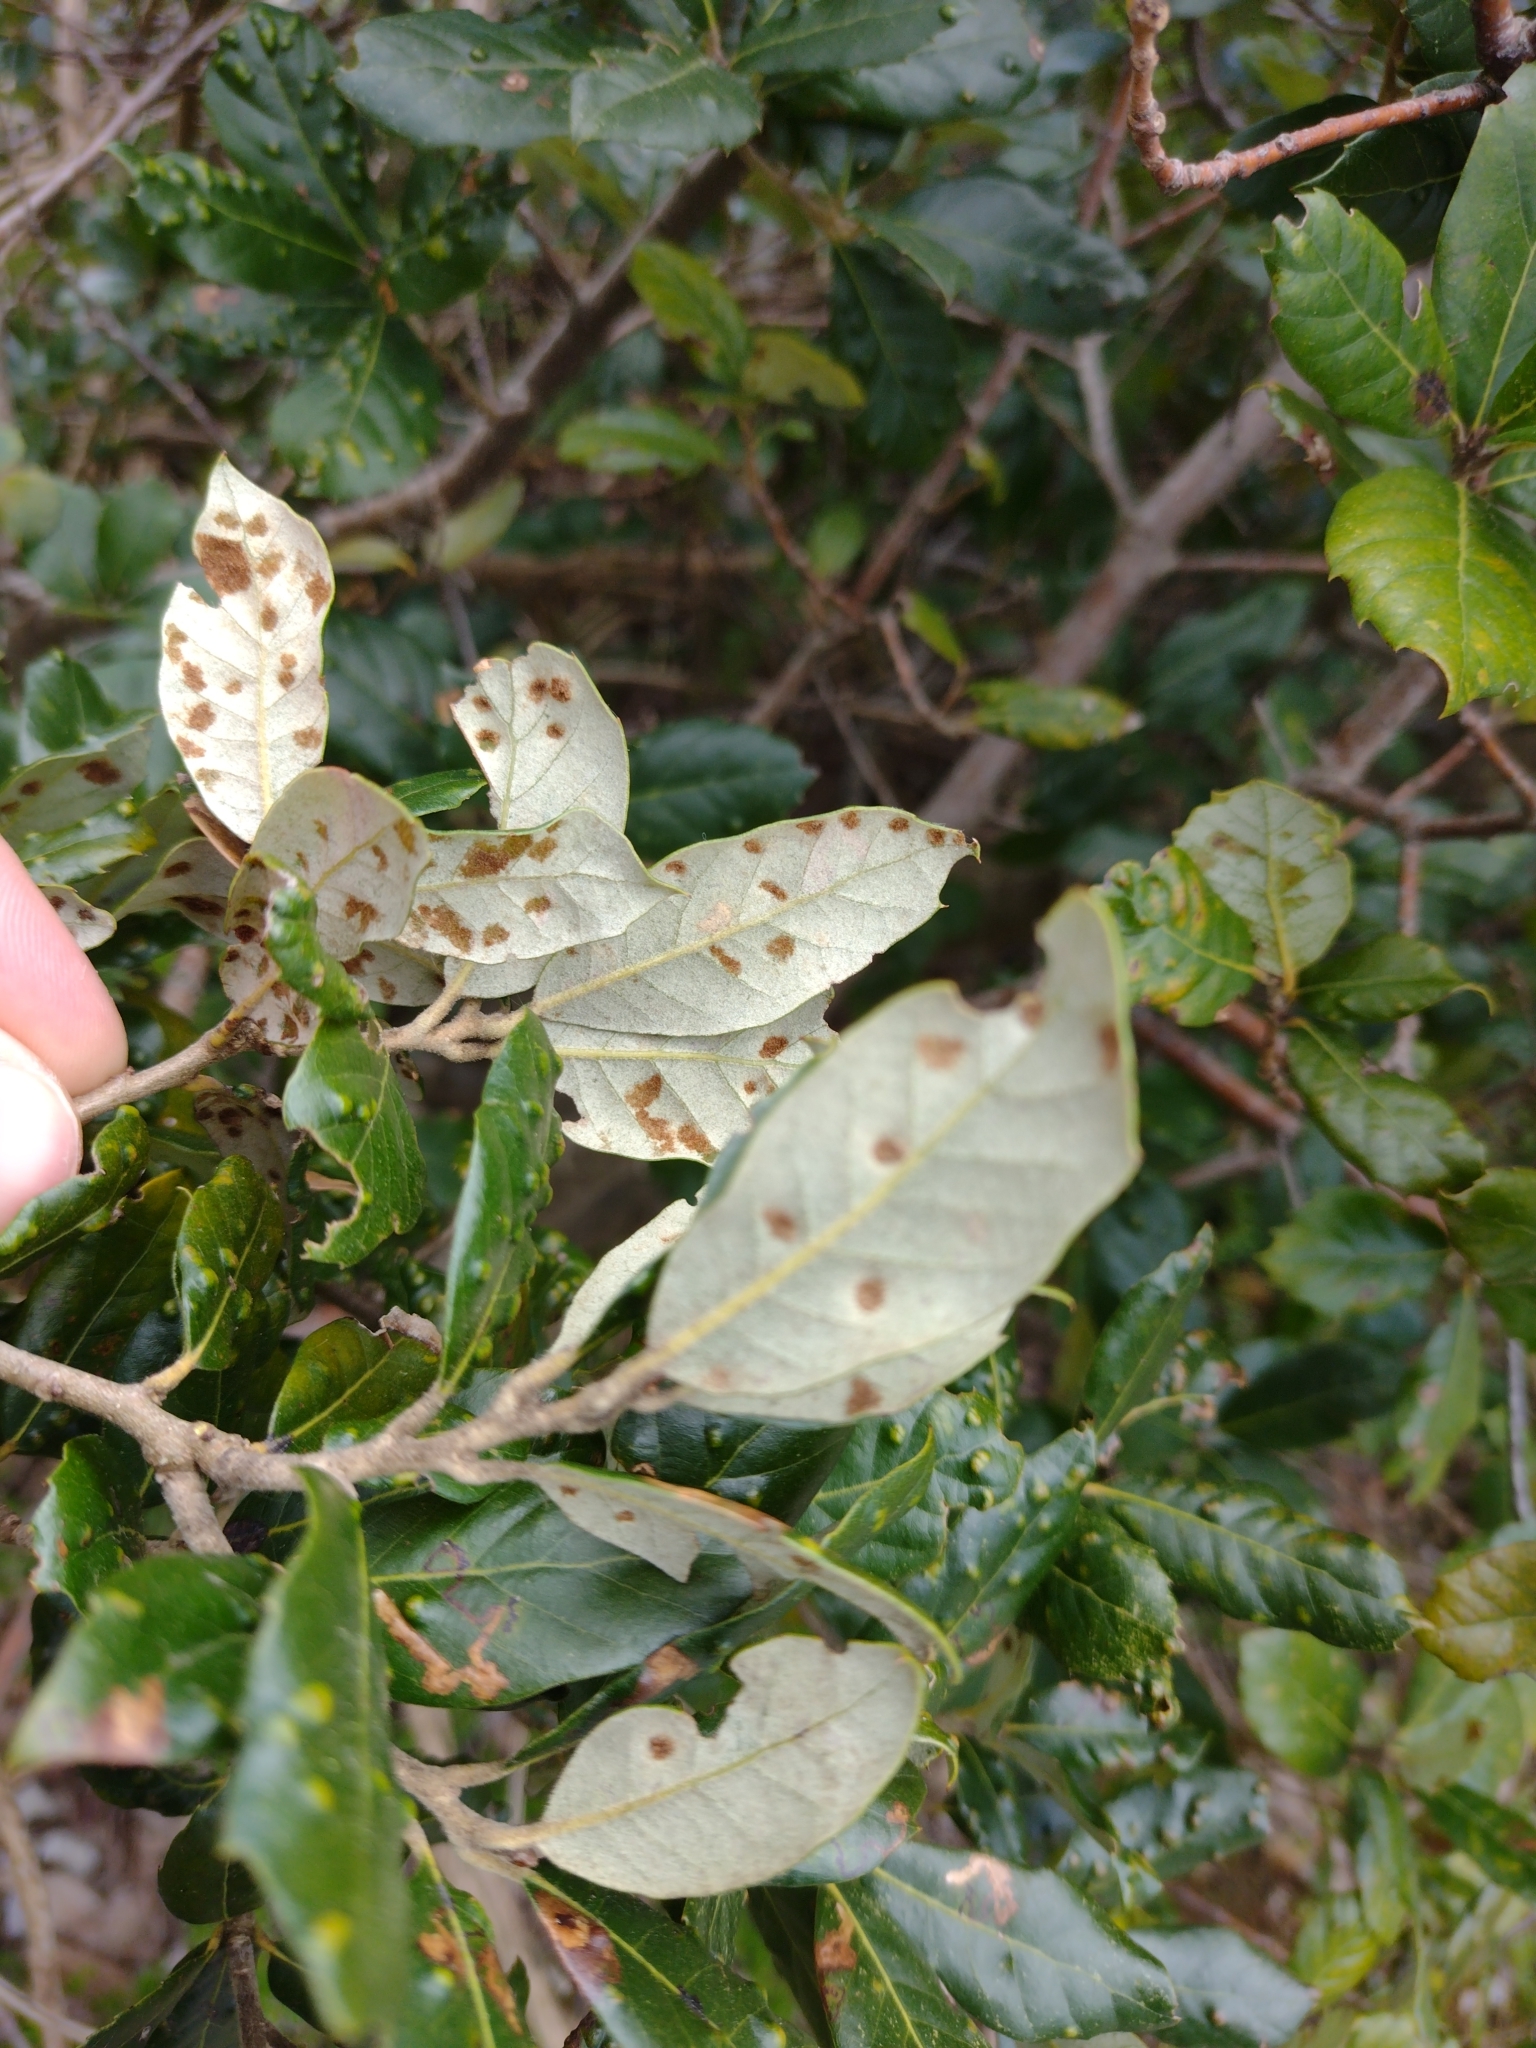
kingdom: Animalia
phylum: Arthropoda
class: Arachnida
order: Trombidiformes
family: Eriophyidae
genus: Aceria
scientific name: Aceria ilicis
